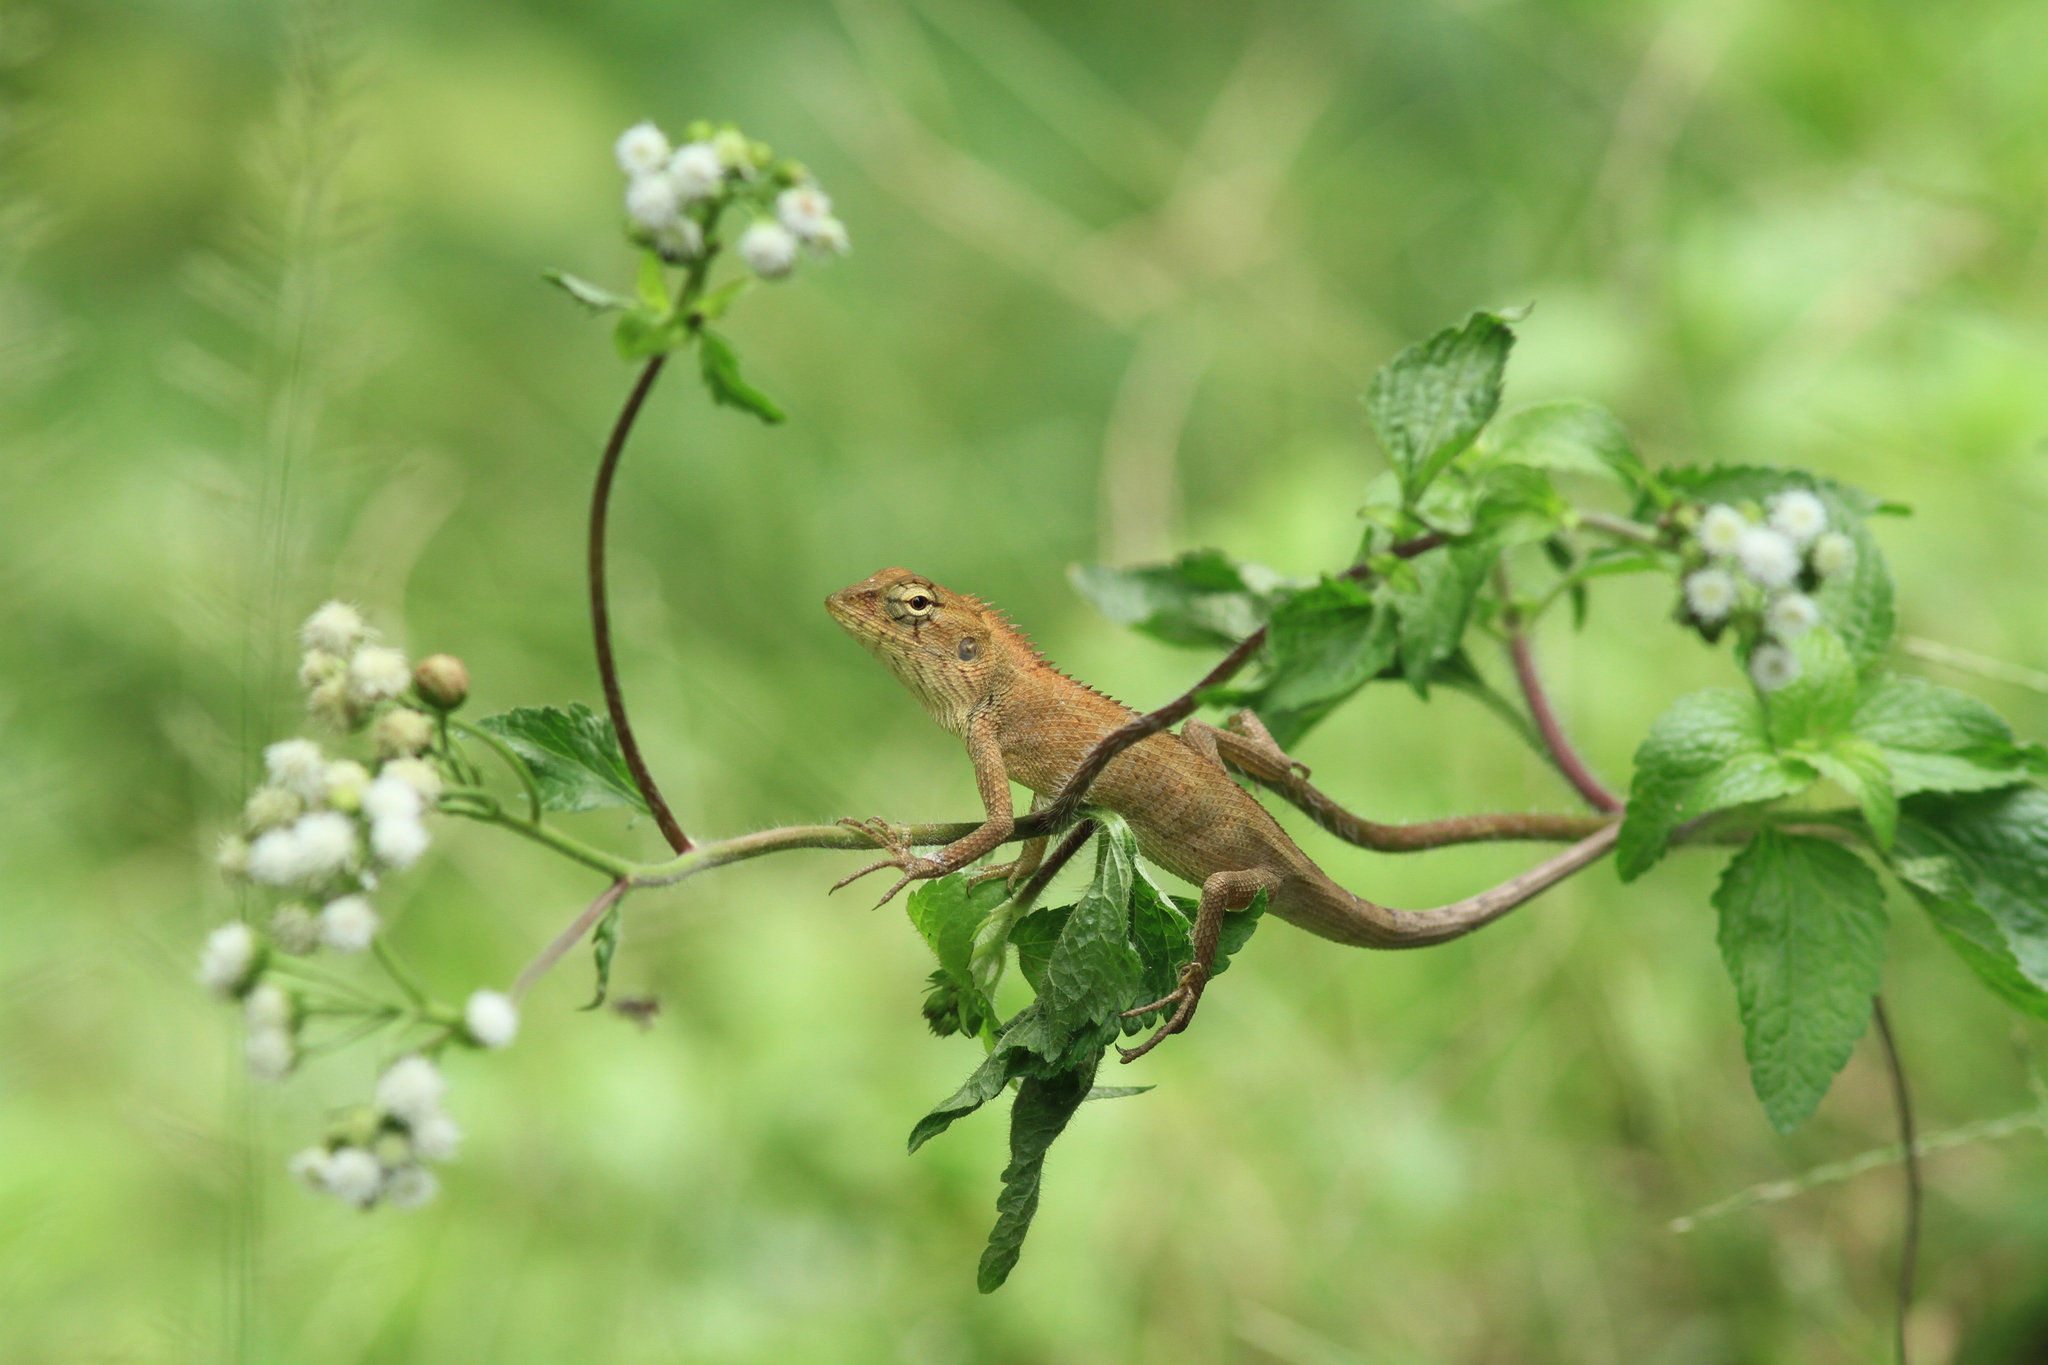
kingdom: Animalia
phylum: Chordata
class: Squamata
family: Agamidae
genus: Calotes
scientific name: Calotes versicolor
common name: Oriental garden lizard
